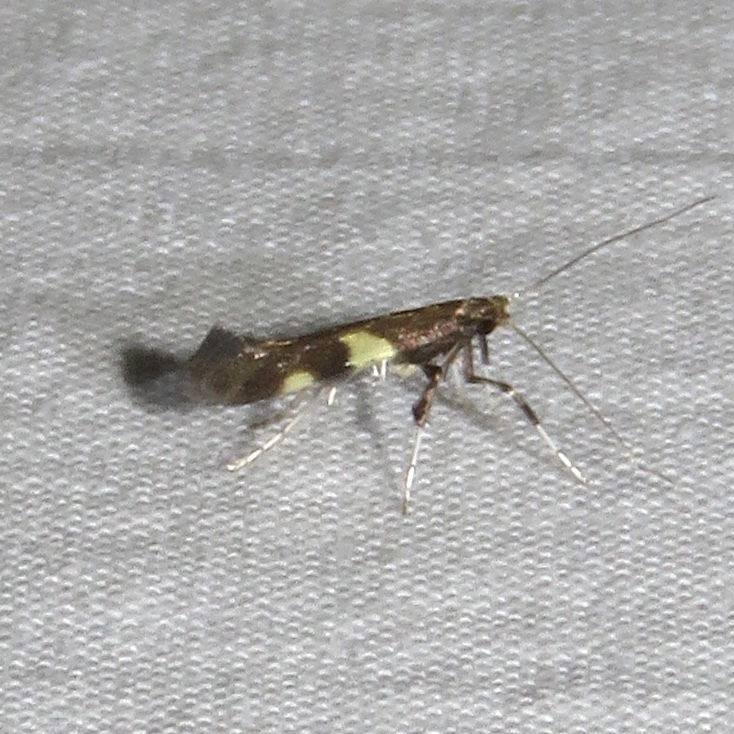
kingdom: Animalia
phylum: Arthropoda
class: Insecta
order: Lepidoptera
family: Gracillariidae
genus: Caloptilia
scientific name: Caloptilia bimaculatella
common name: Maple caloptilia moth
